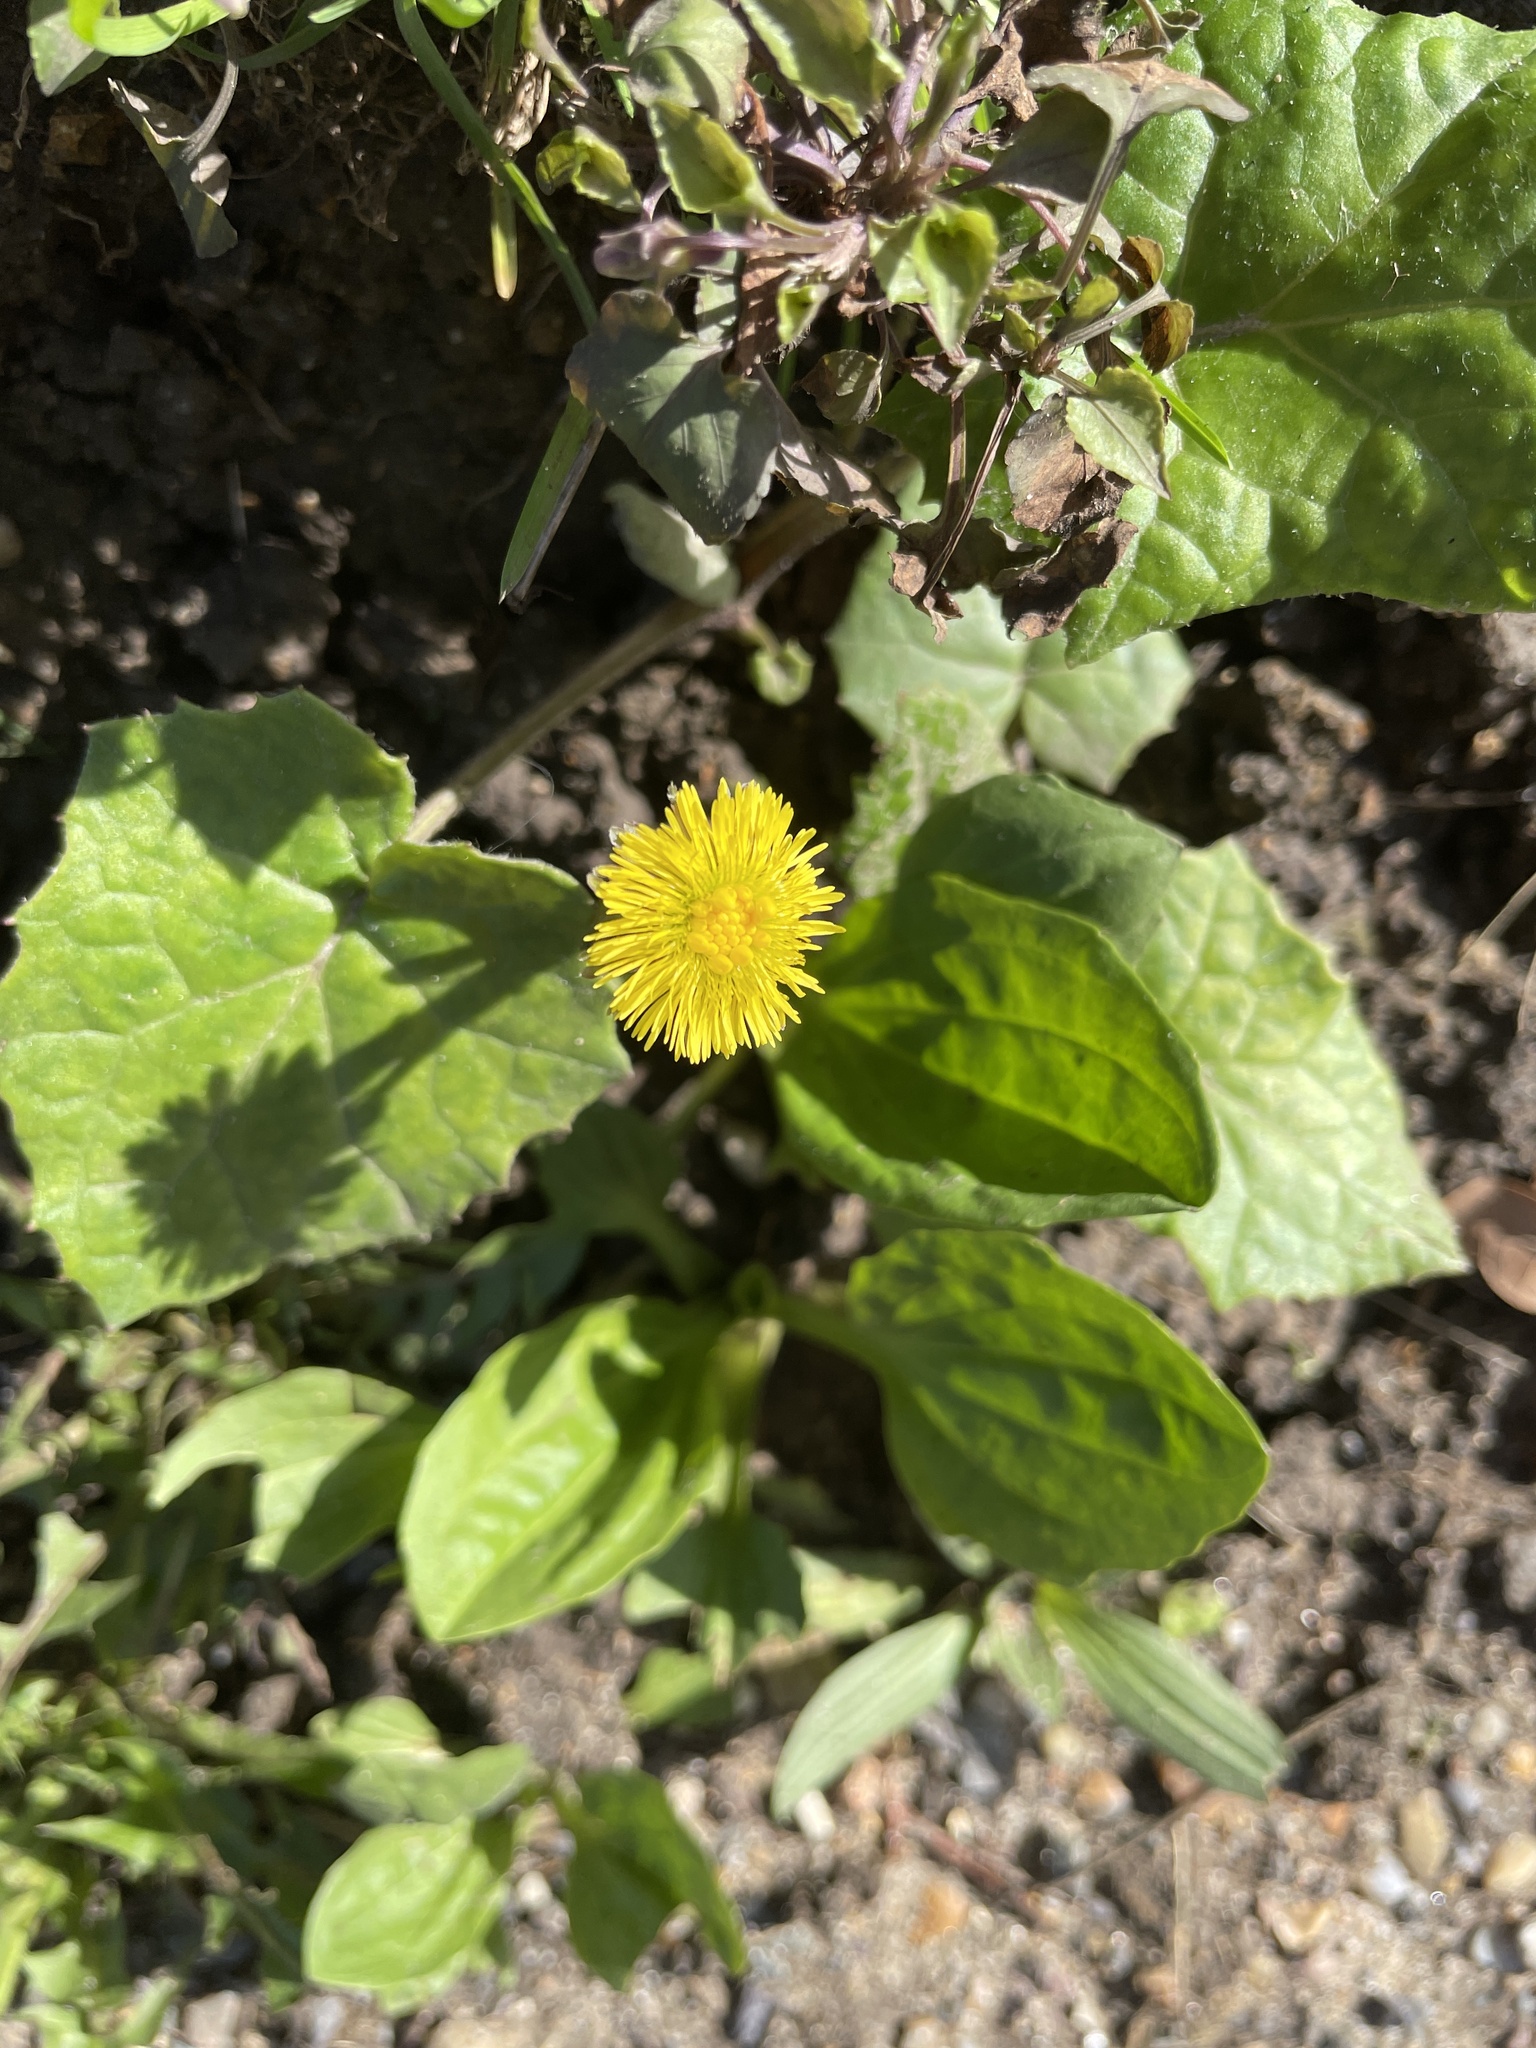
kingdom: Plantae
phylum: Tracheophyta
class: Magnoliopsida
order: Asterales
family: Asteraceae
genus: Tussilago
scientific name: Tussilago farfara
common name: Coltsfoot
